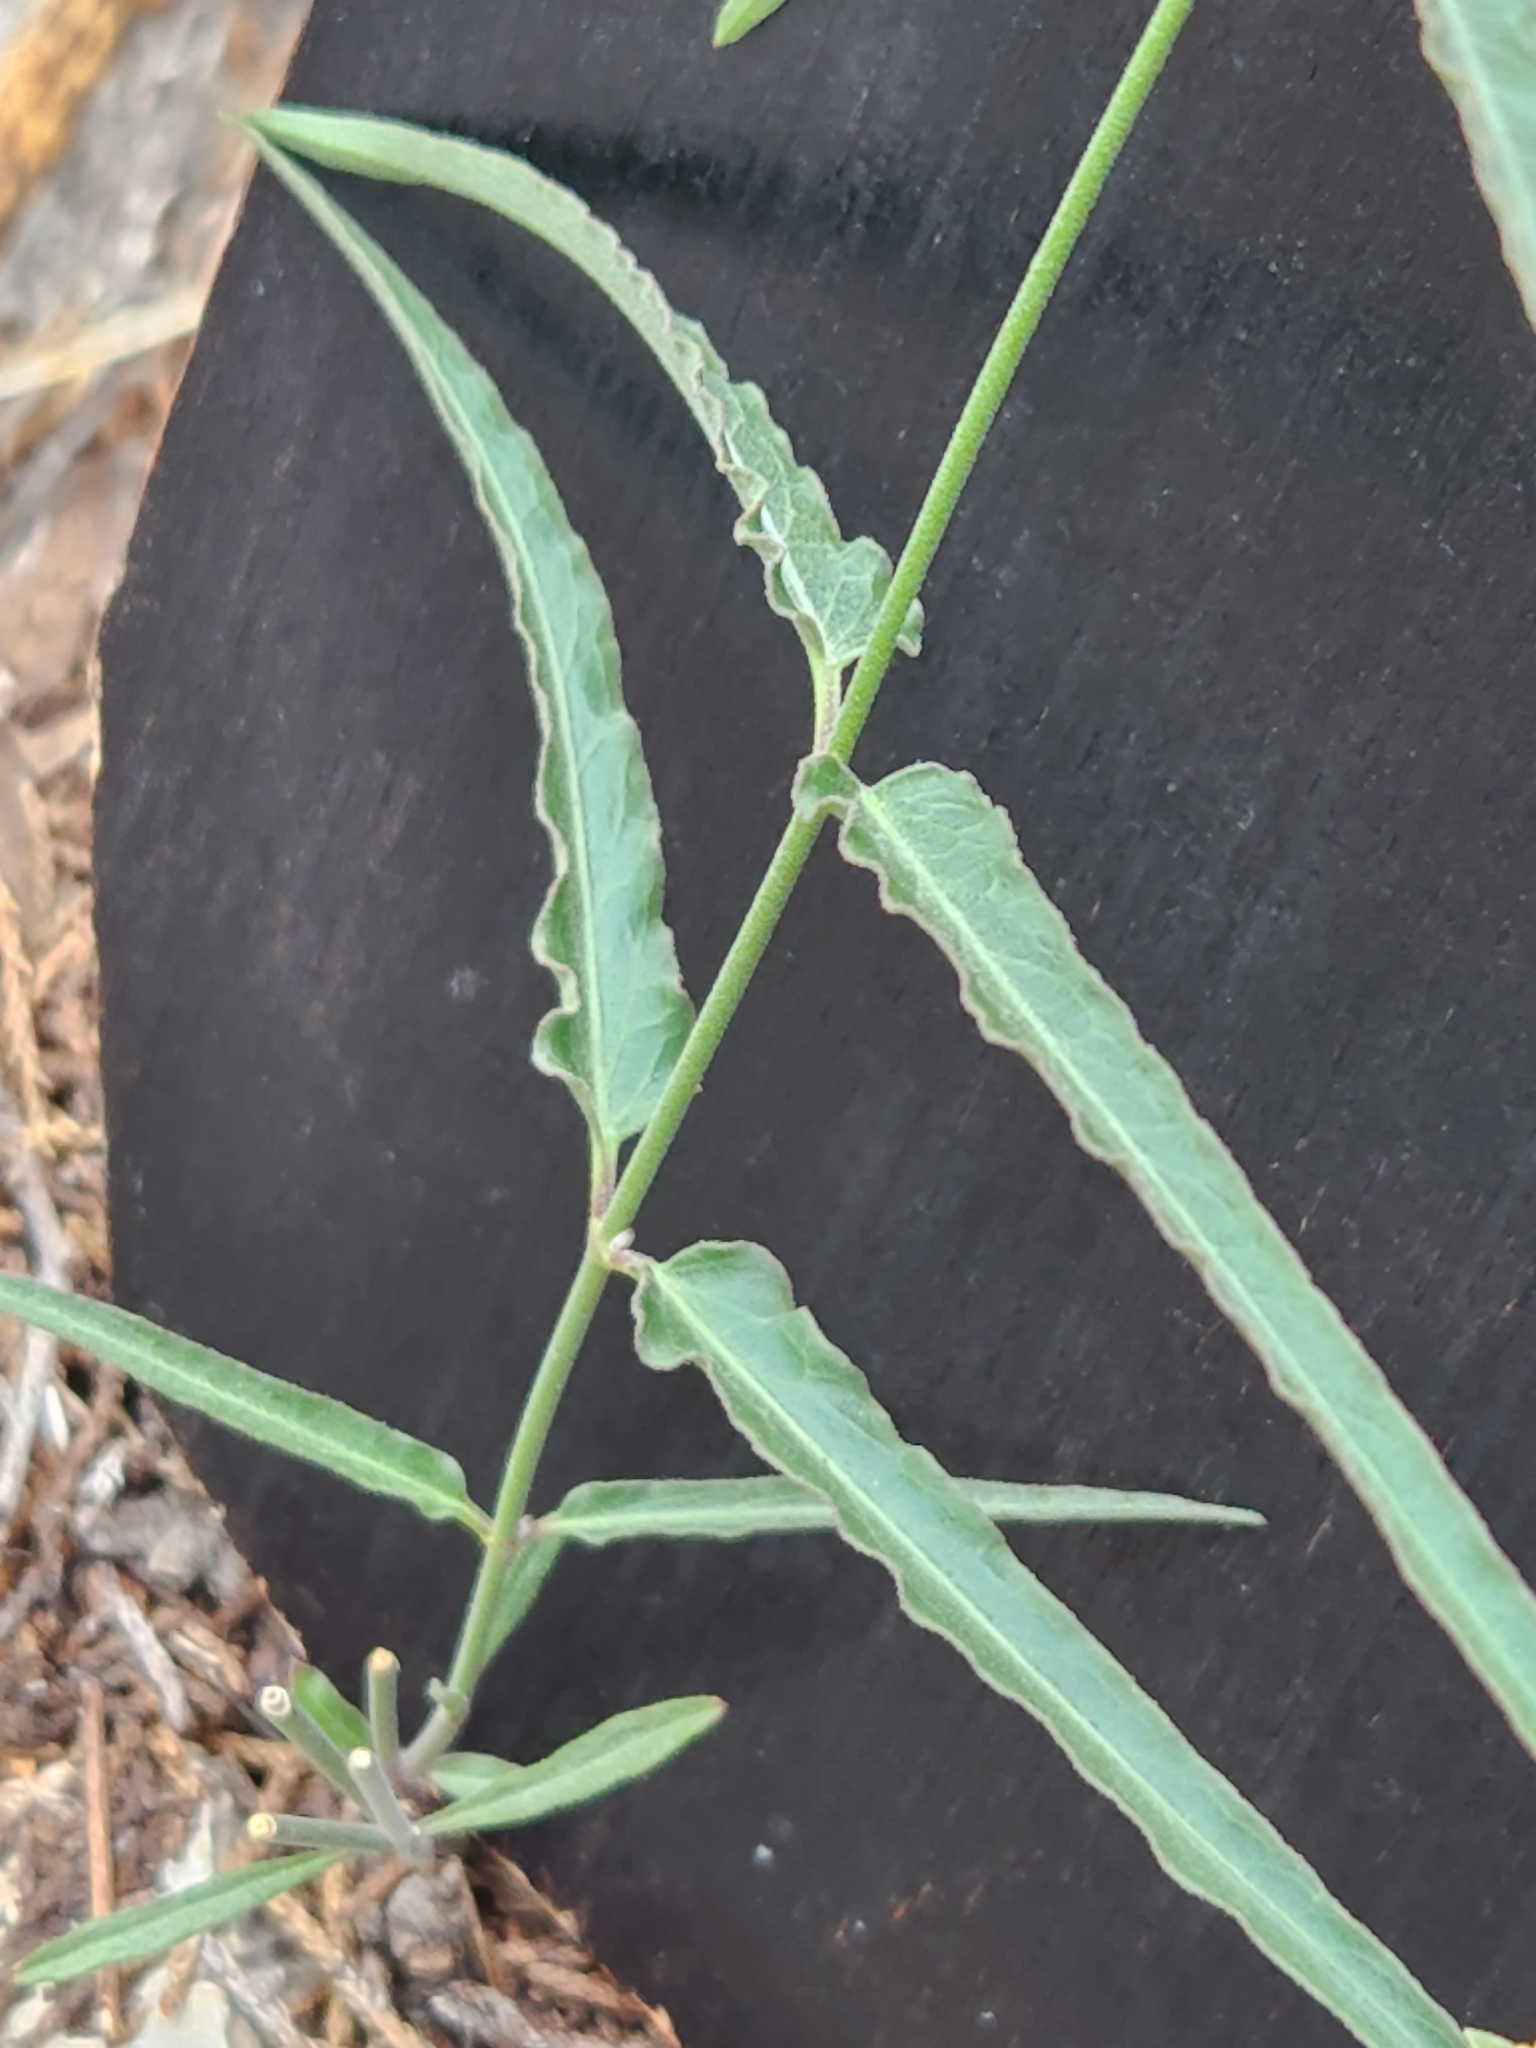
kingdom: Plantae
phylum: Tracheophyta
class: Magnoliopsida
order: Gentianales
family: Apocynaceae
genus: Funastrum
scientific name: Funastrum crispum
